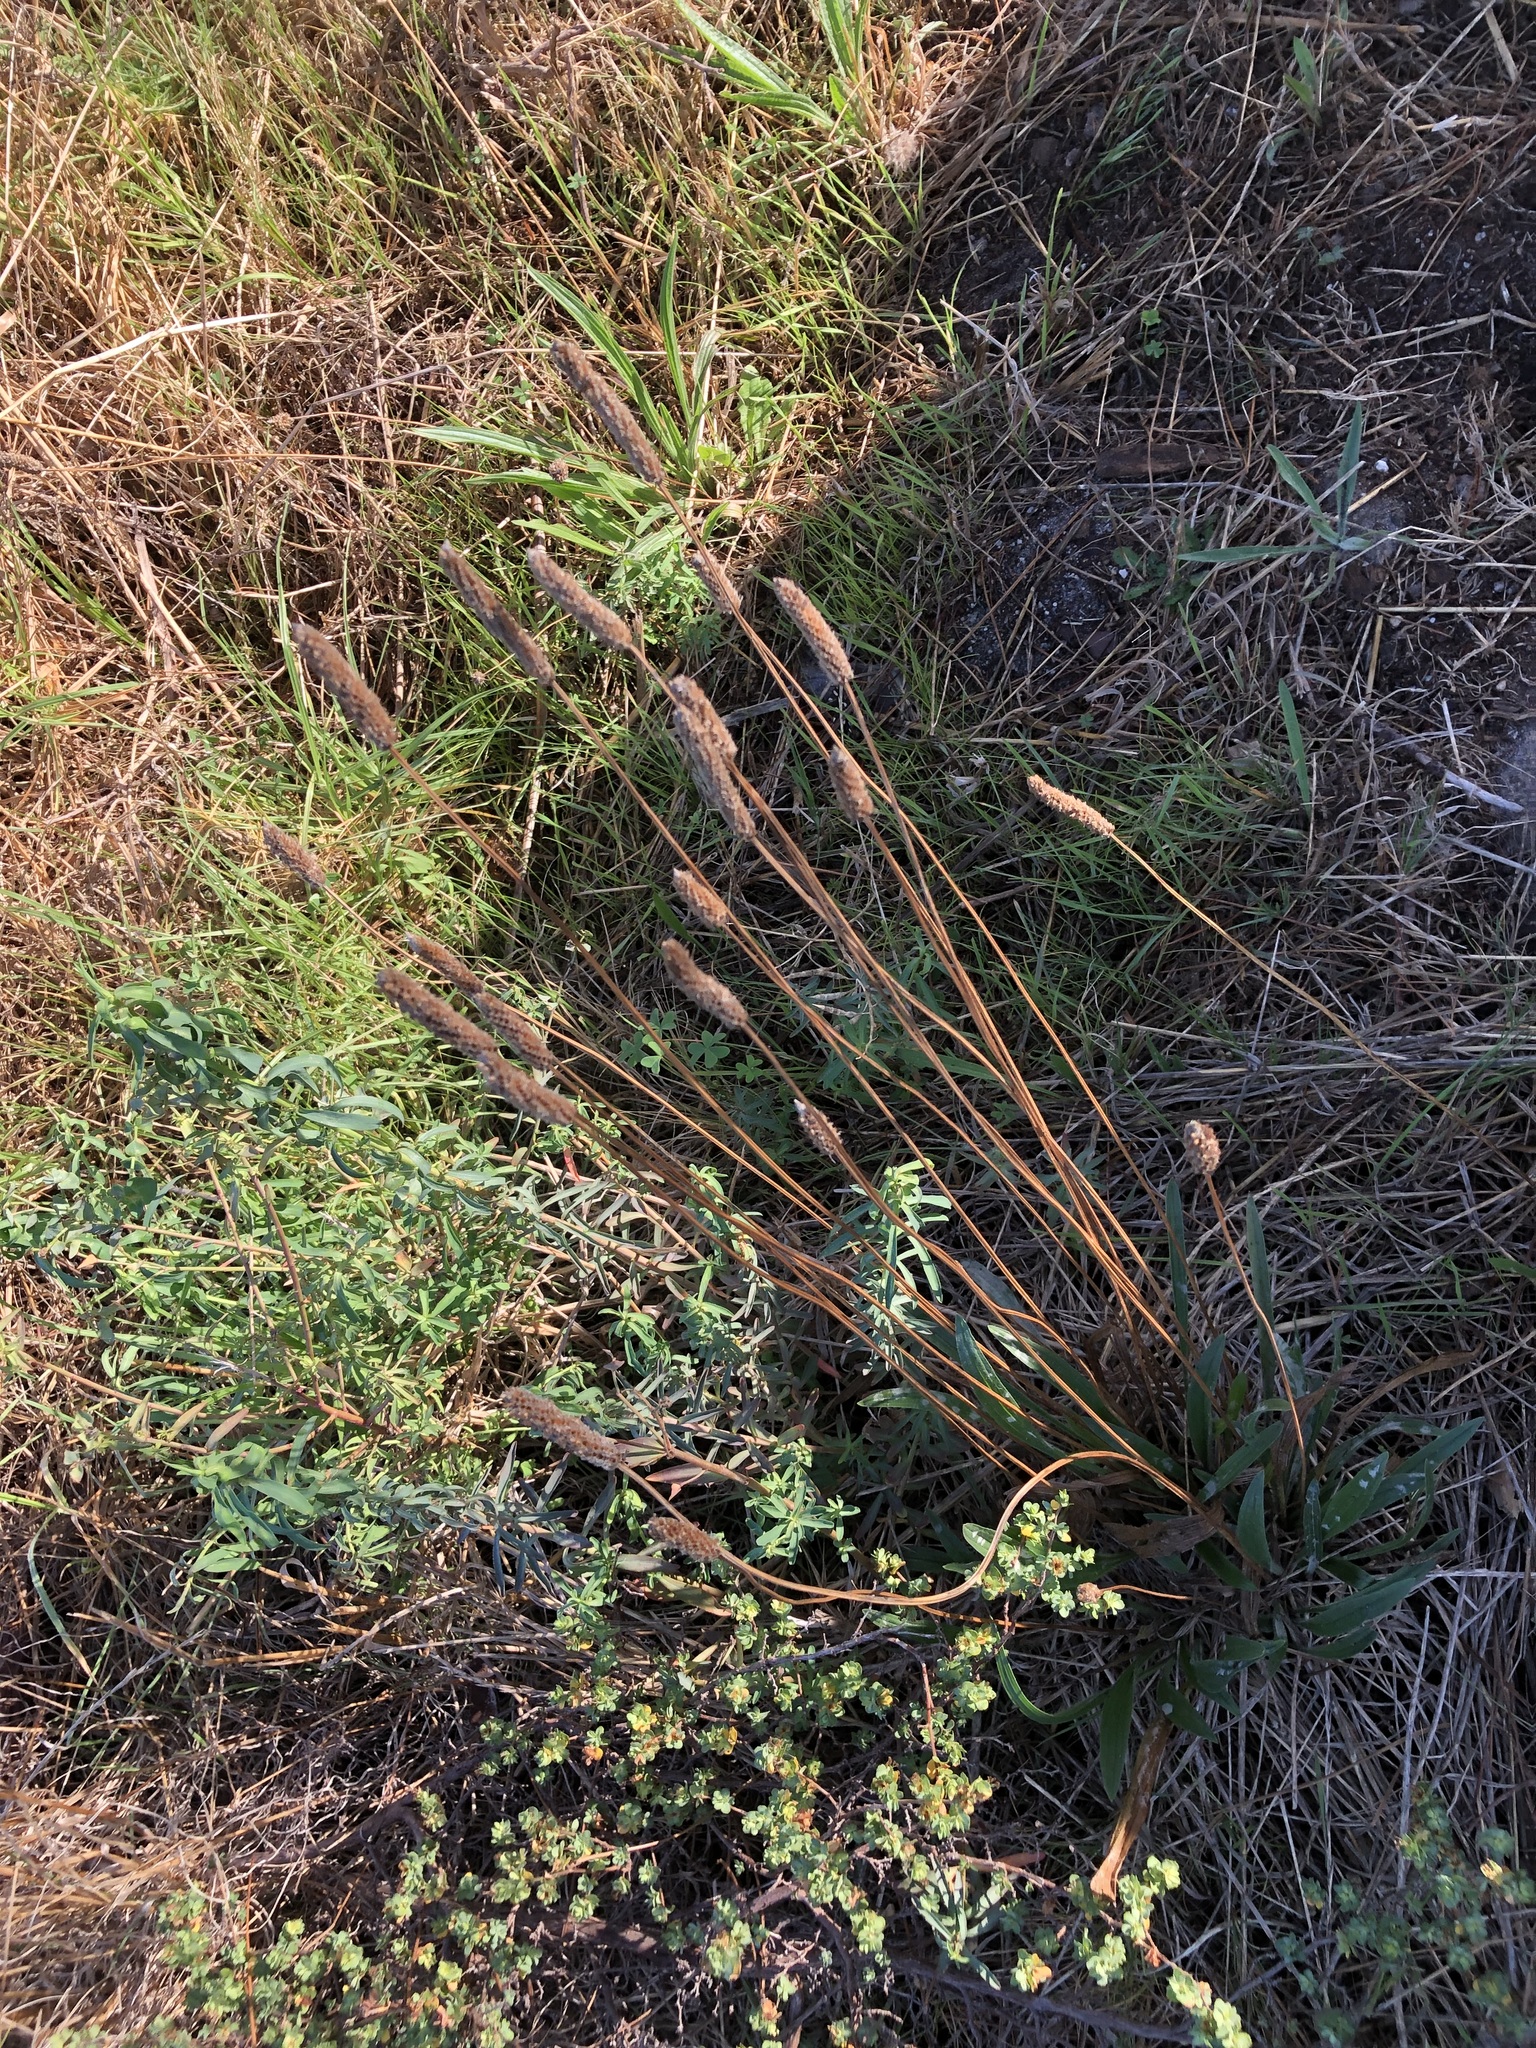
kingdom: Plantae
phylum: Tracheophyta
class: Magnoliopsida
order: Lamiales
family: Plantaginaceae
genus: Plantago
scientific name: Plantago lanceolata
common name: Ribwort plantain
